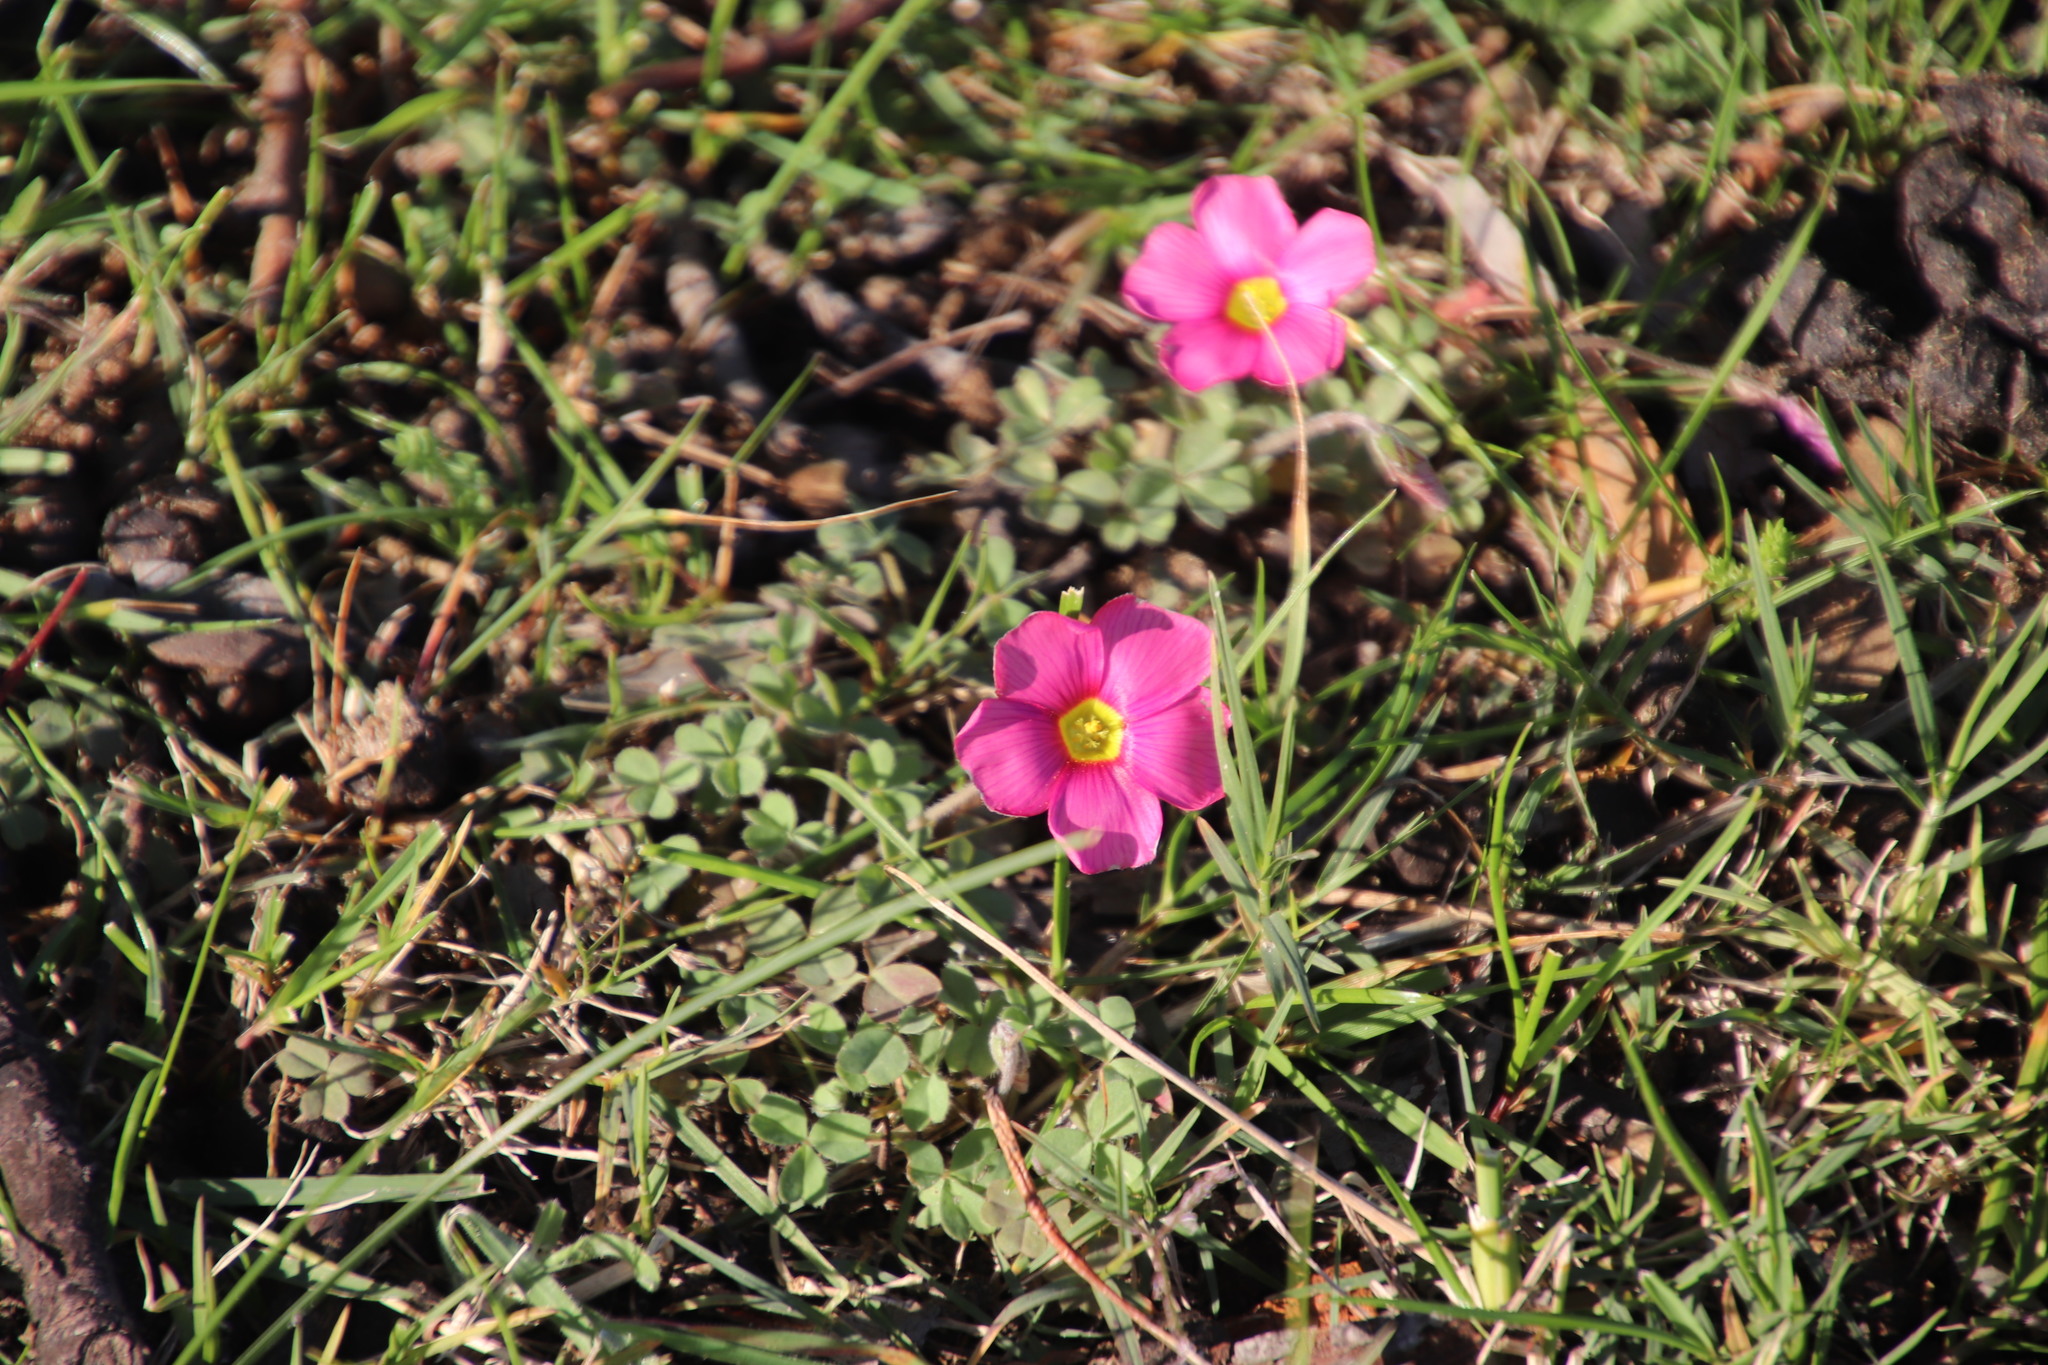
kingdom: Plantae
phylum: Tracheophyta
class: Magnoliopsida
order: Oxalidales
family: Oxalidaceae
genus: Oxalis
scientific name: Oxalis obtusa
